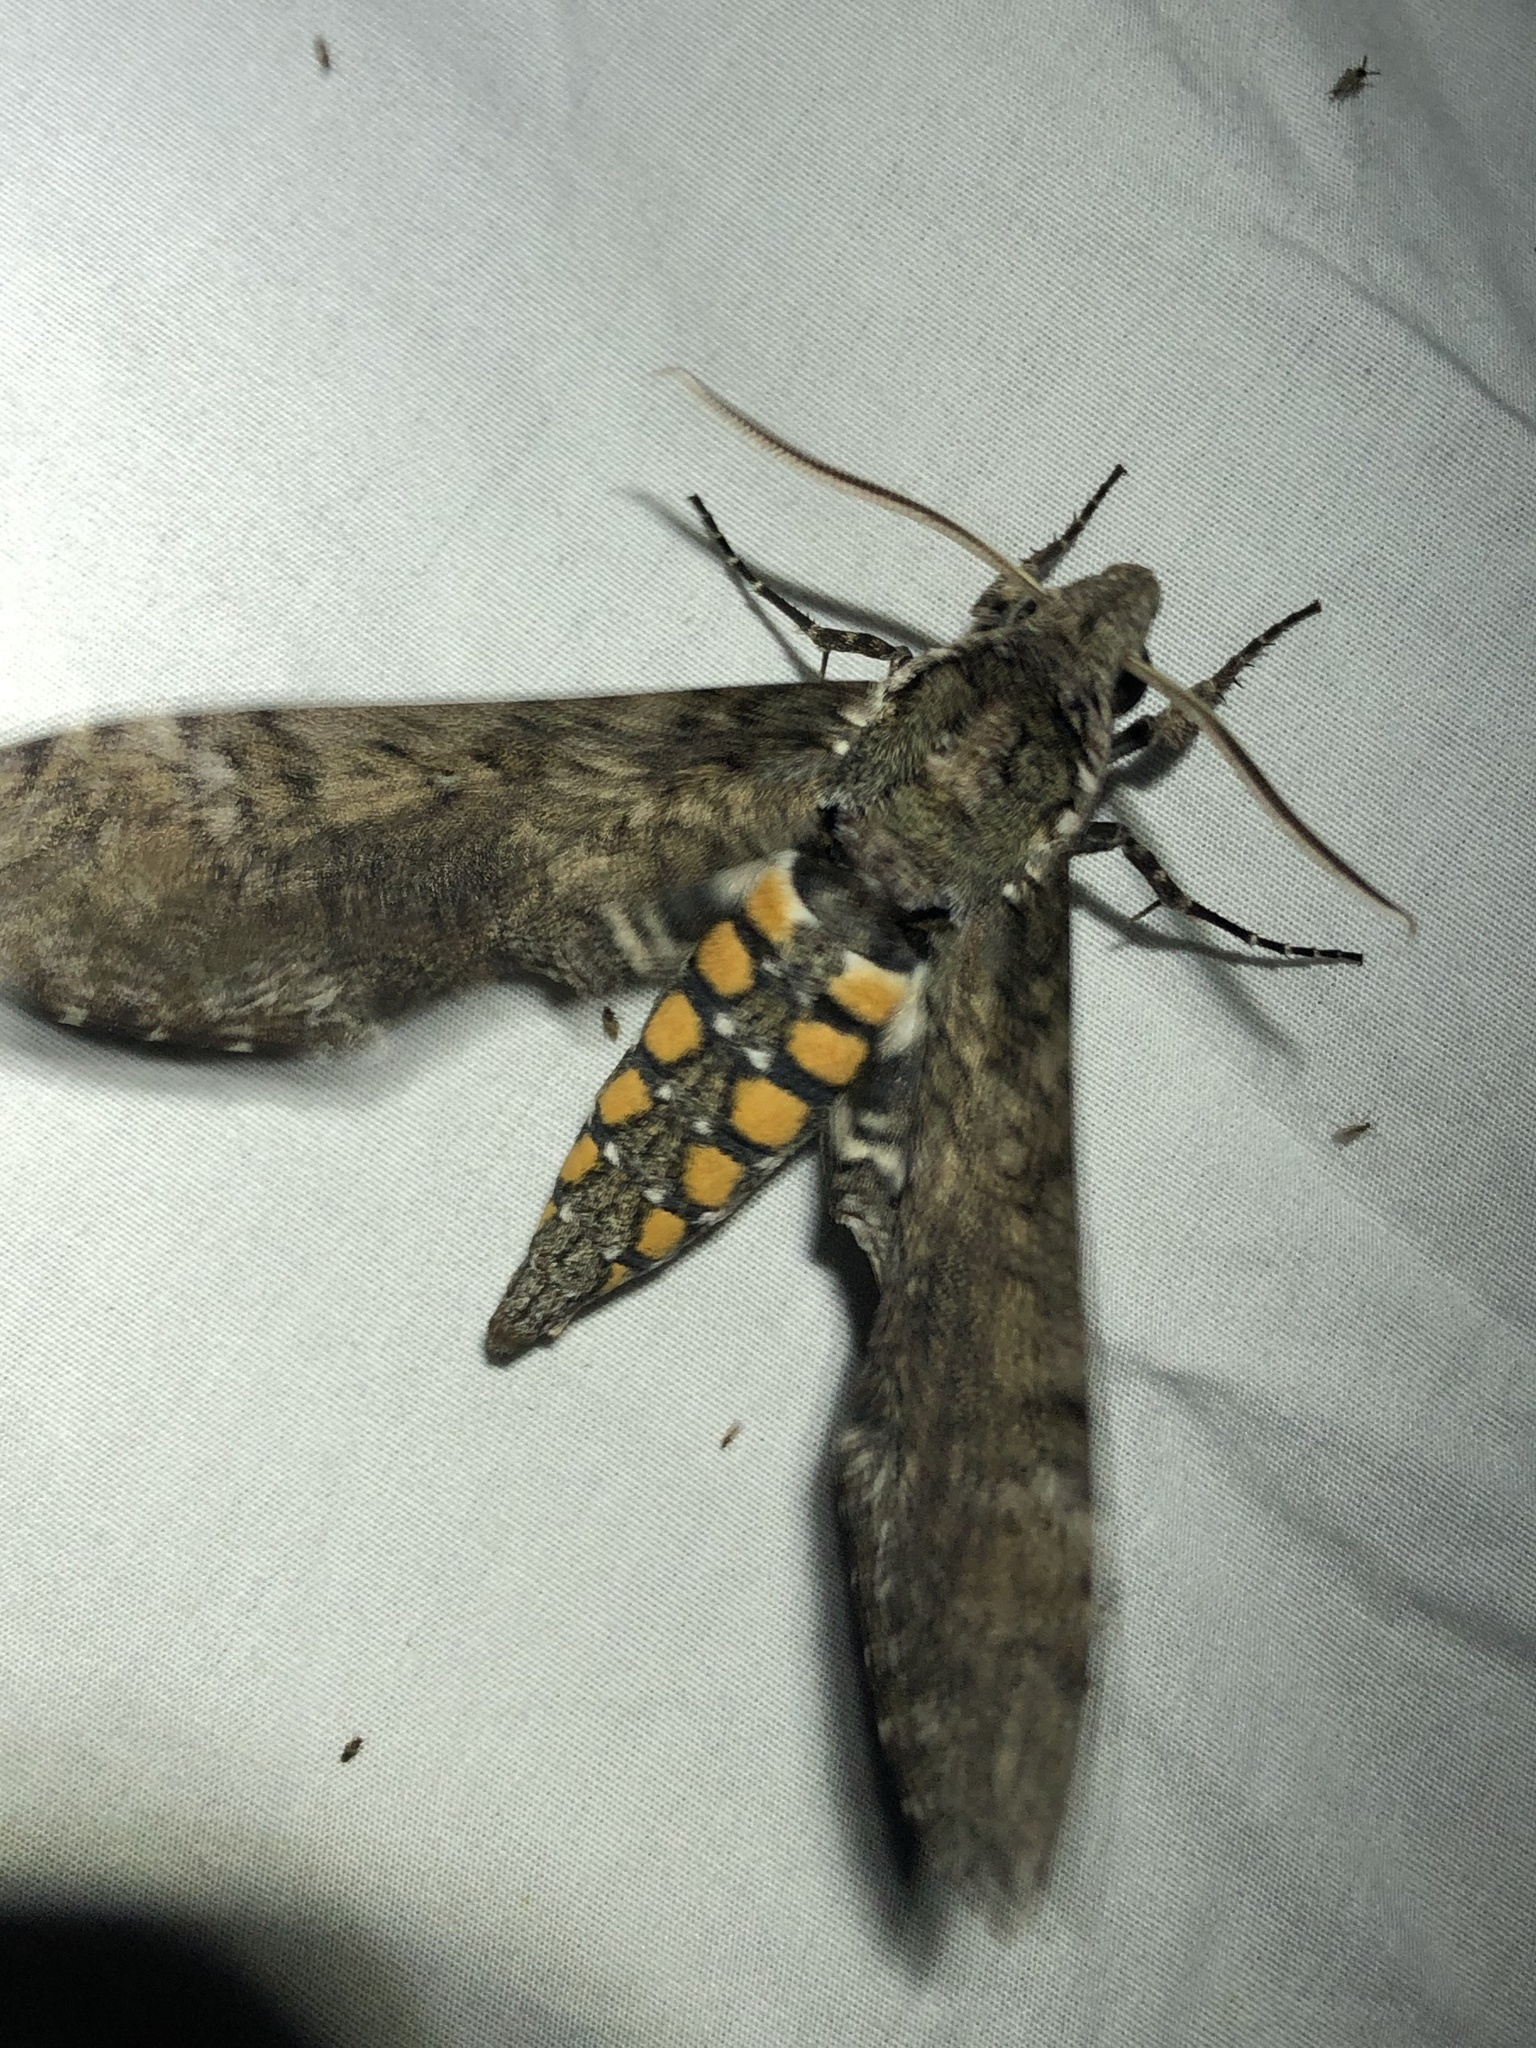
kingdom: Animalia
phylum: Arthropoda
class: Insecta
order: Lepidoptera
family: Sphingidae
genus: Manduca
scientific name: Manduca sexta
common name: Carolina sphinx
